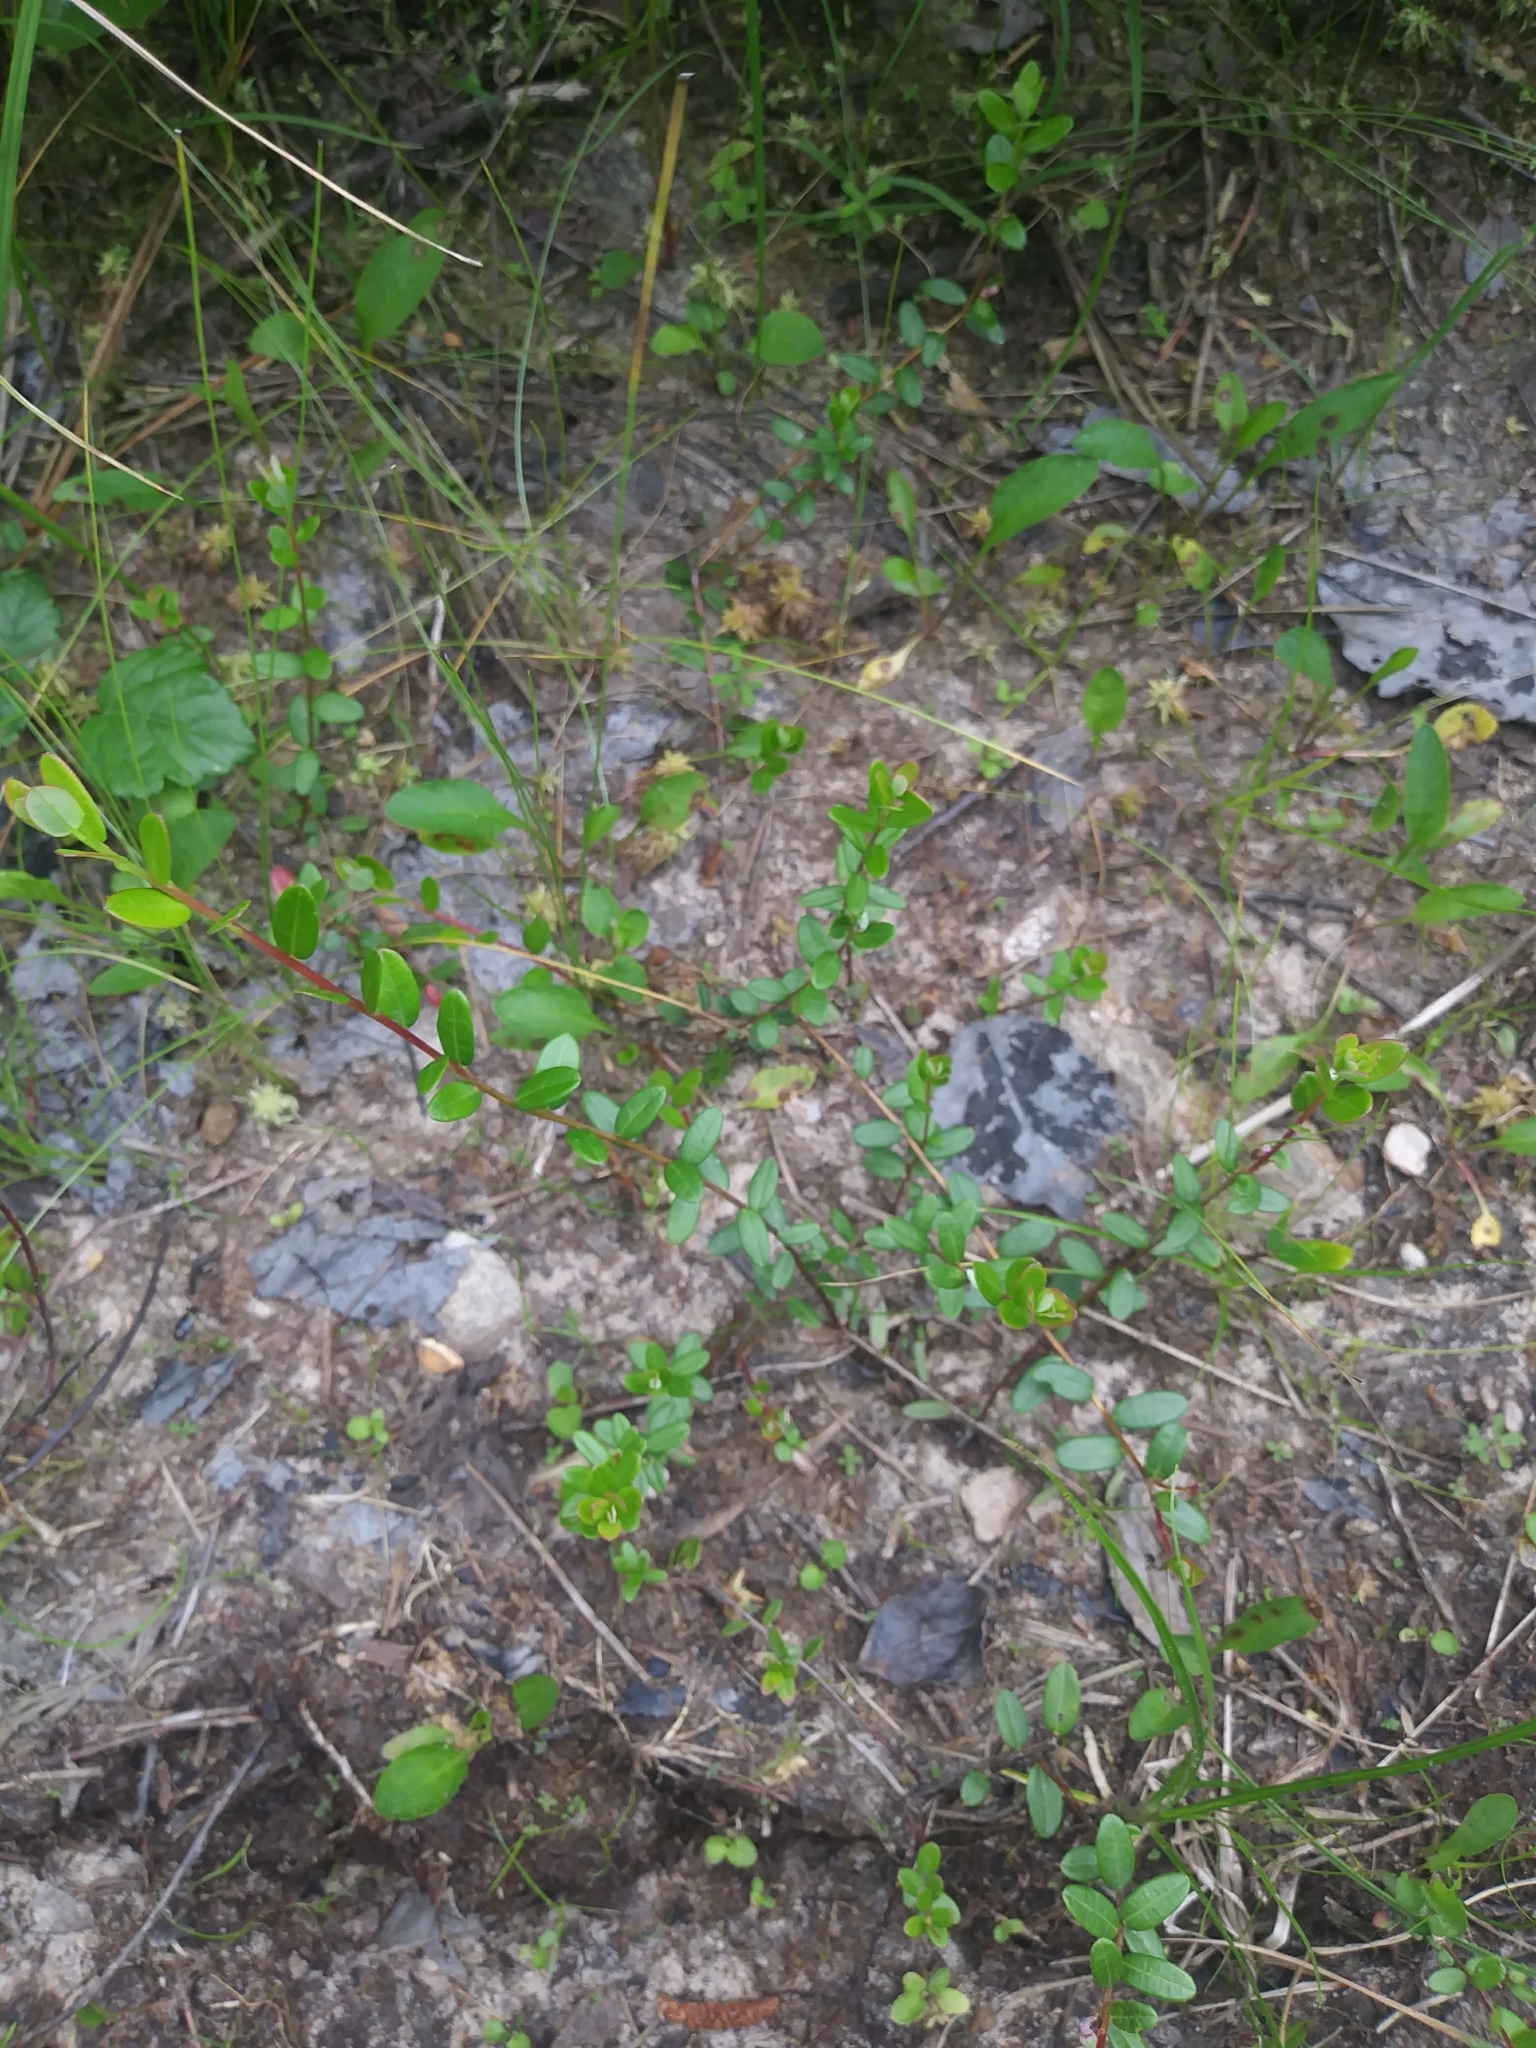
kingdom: Plantae
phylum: Tracheophyta
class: Magnoliopsida
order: Ericales
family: Ericaceae
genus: Vaccinium
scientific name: Vaccinium macrocarpon
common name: American cranberry
